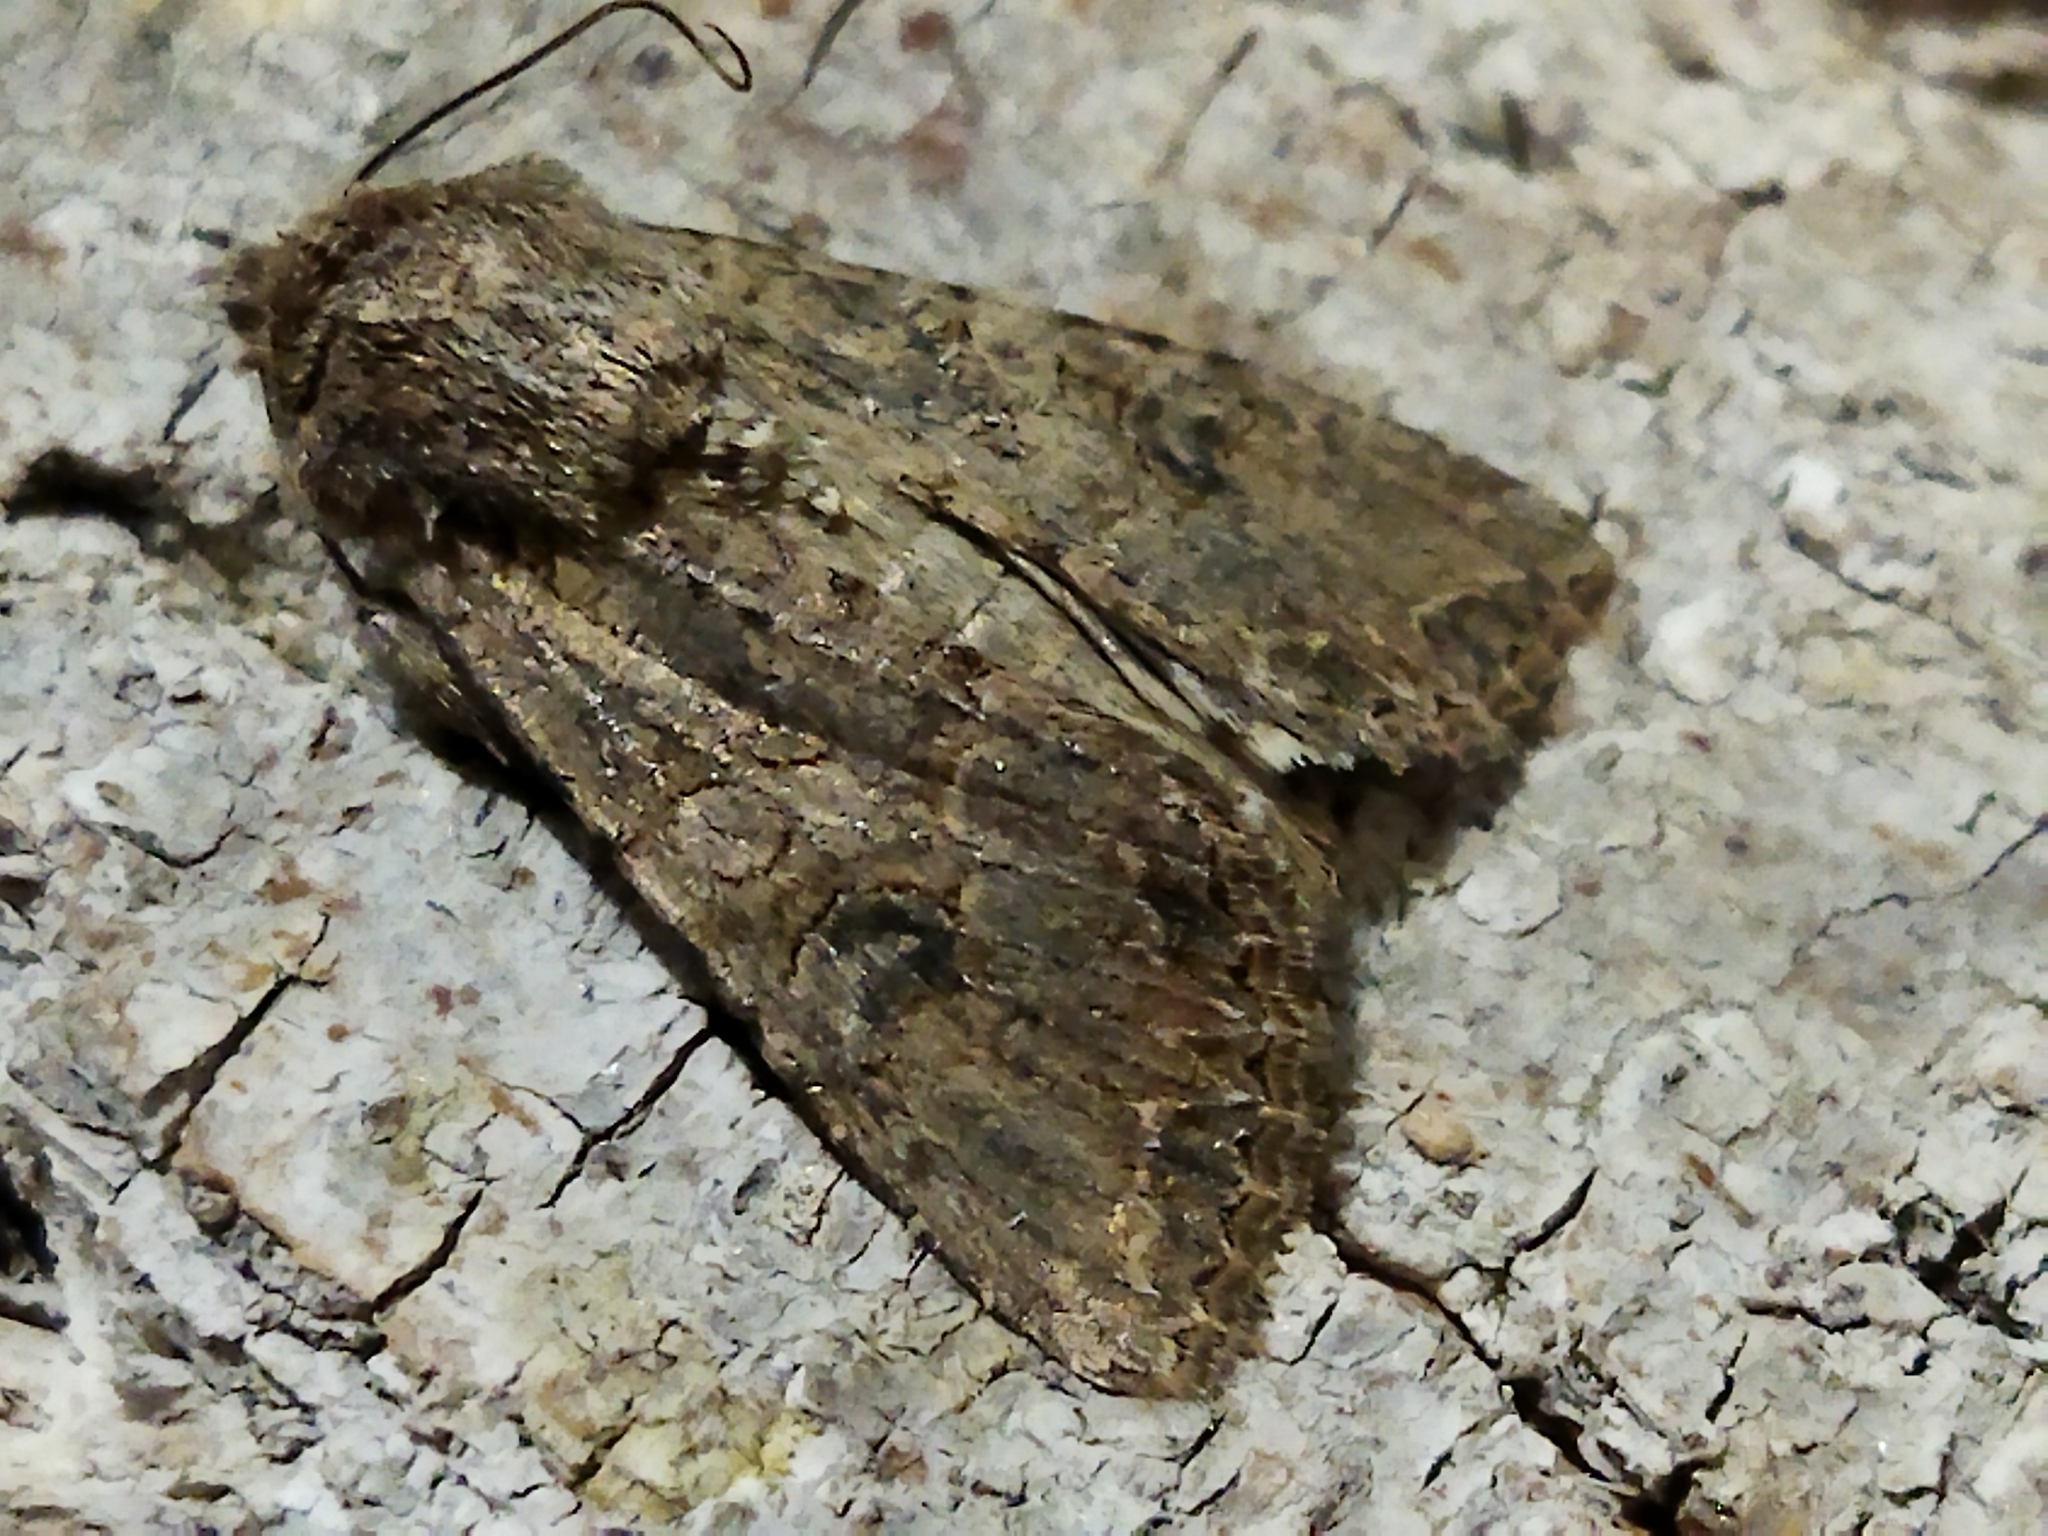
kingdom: Animalia
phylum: Arthropoda
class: Insecta
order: Lepidoptera
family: Noctuidae
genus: Anarta
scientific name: Anarta trifolii
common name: Clover cutworm moth
